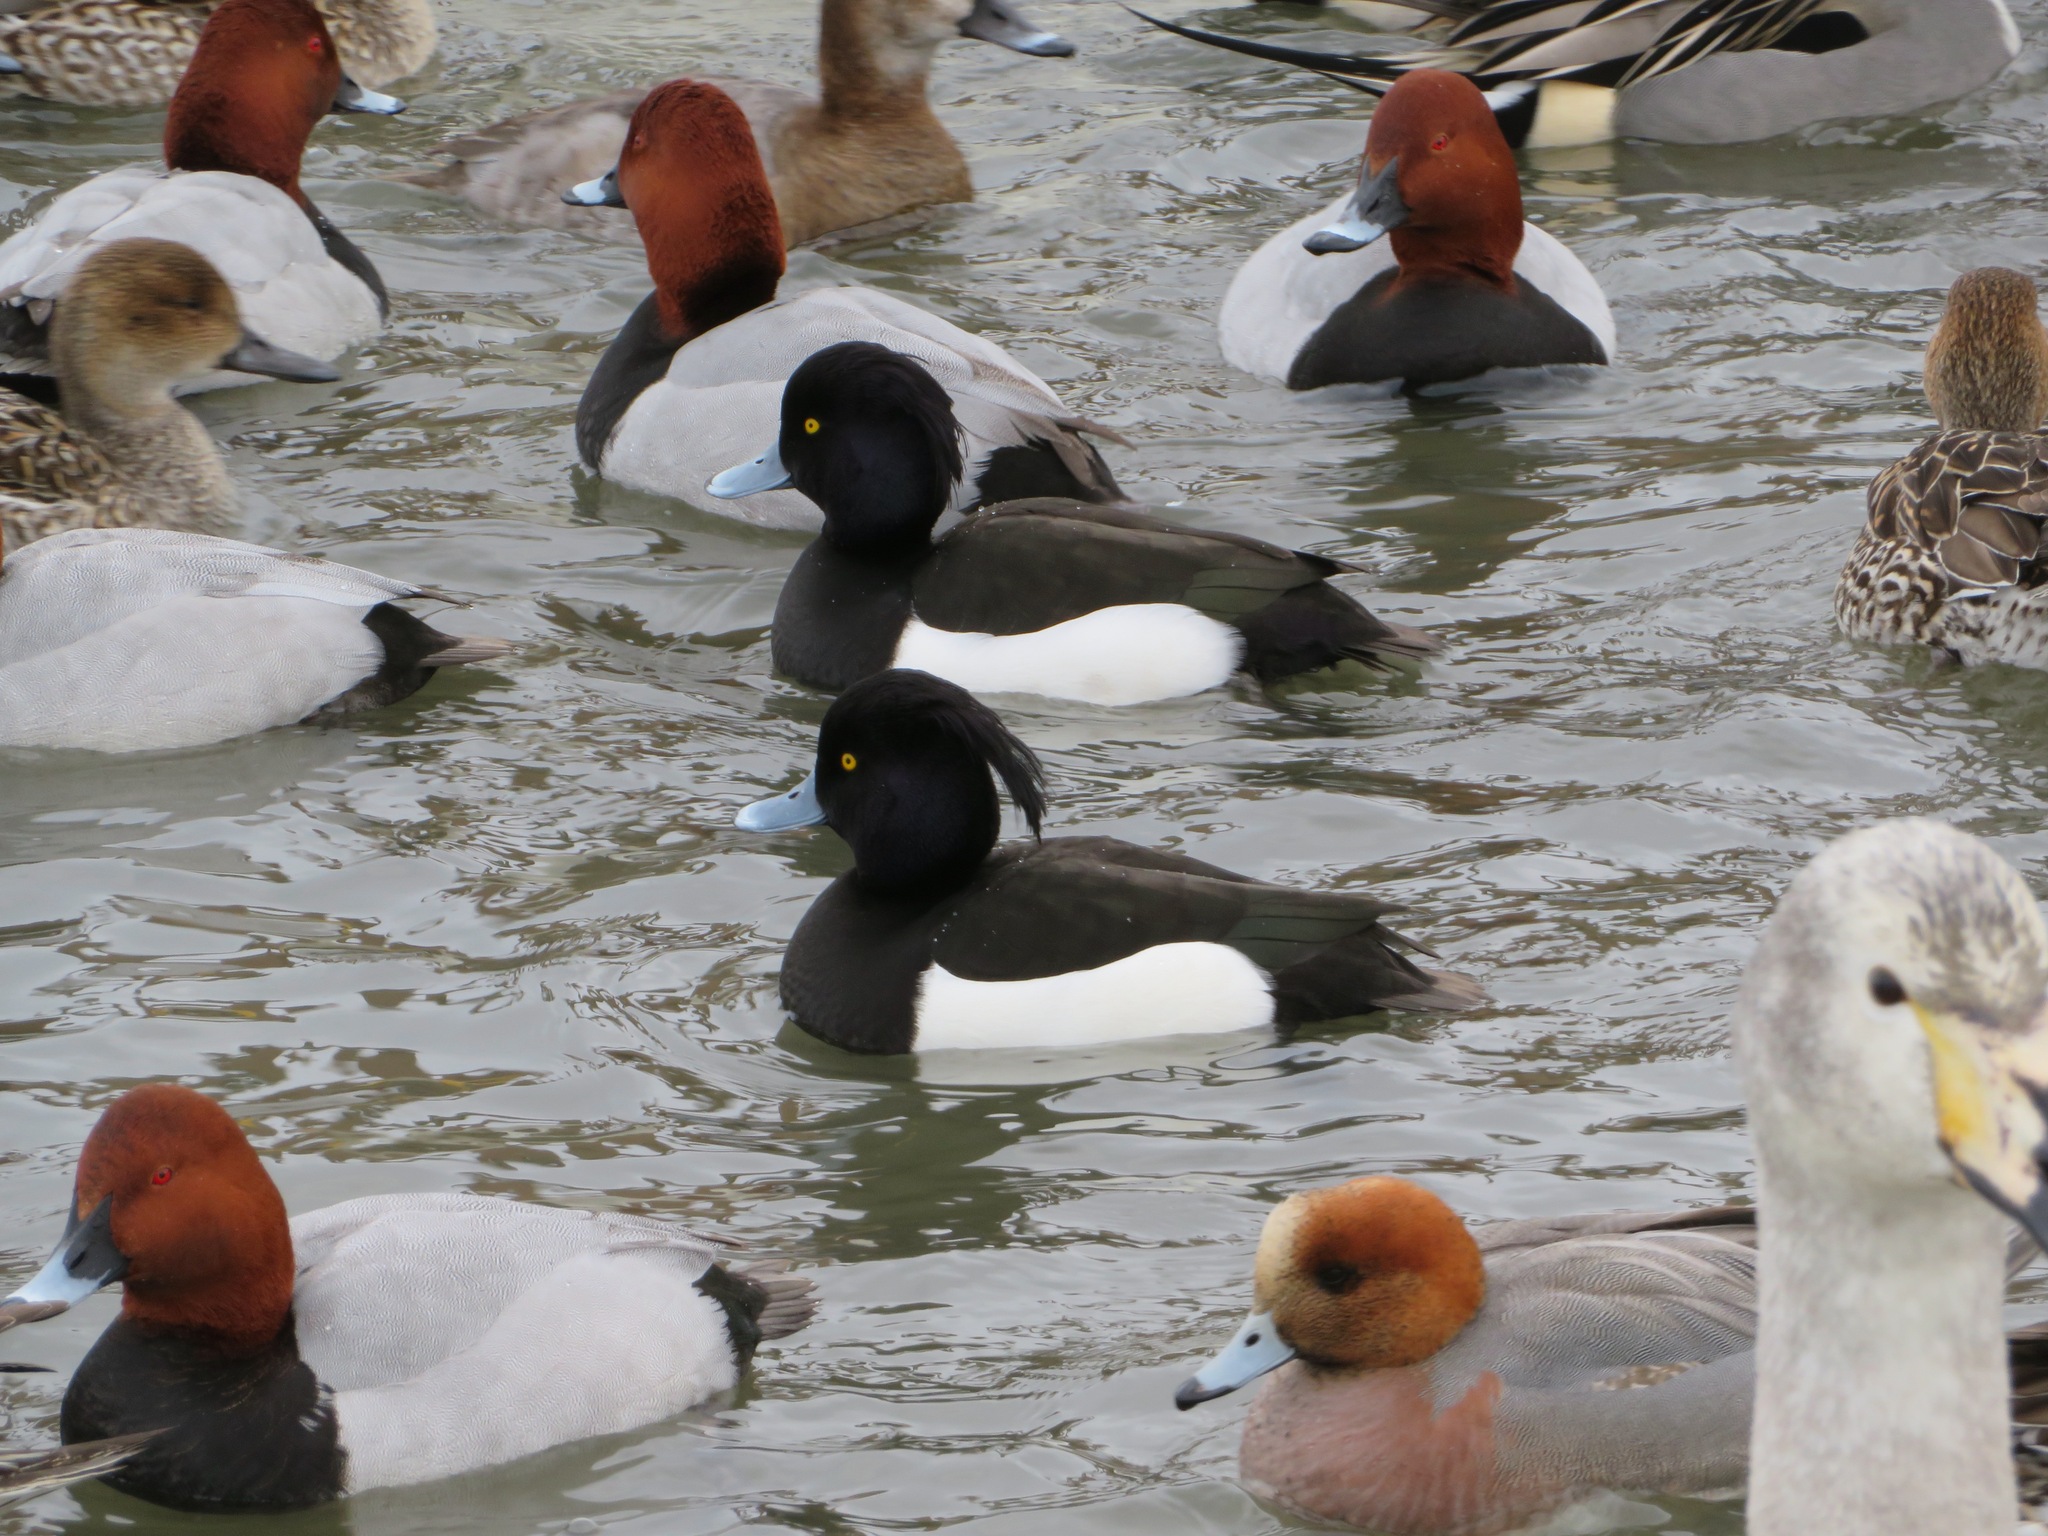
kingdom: Animalia
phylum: Chordata
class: Aves
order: Anseriformes
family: Anatidae
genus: Aythya
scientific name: Aythya fuligula
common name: Tufted duck
